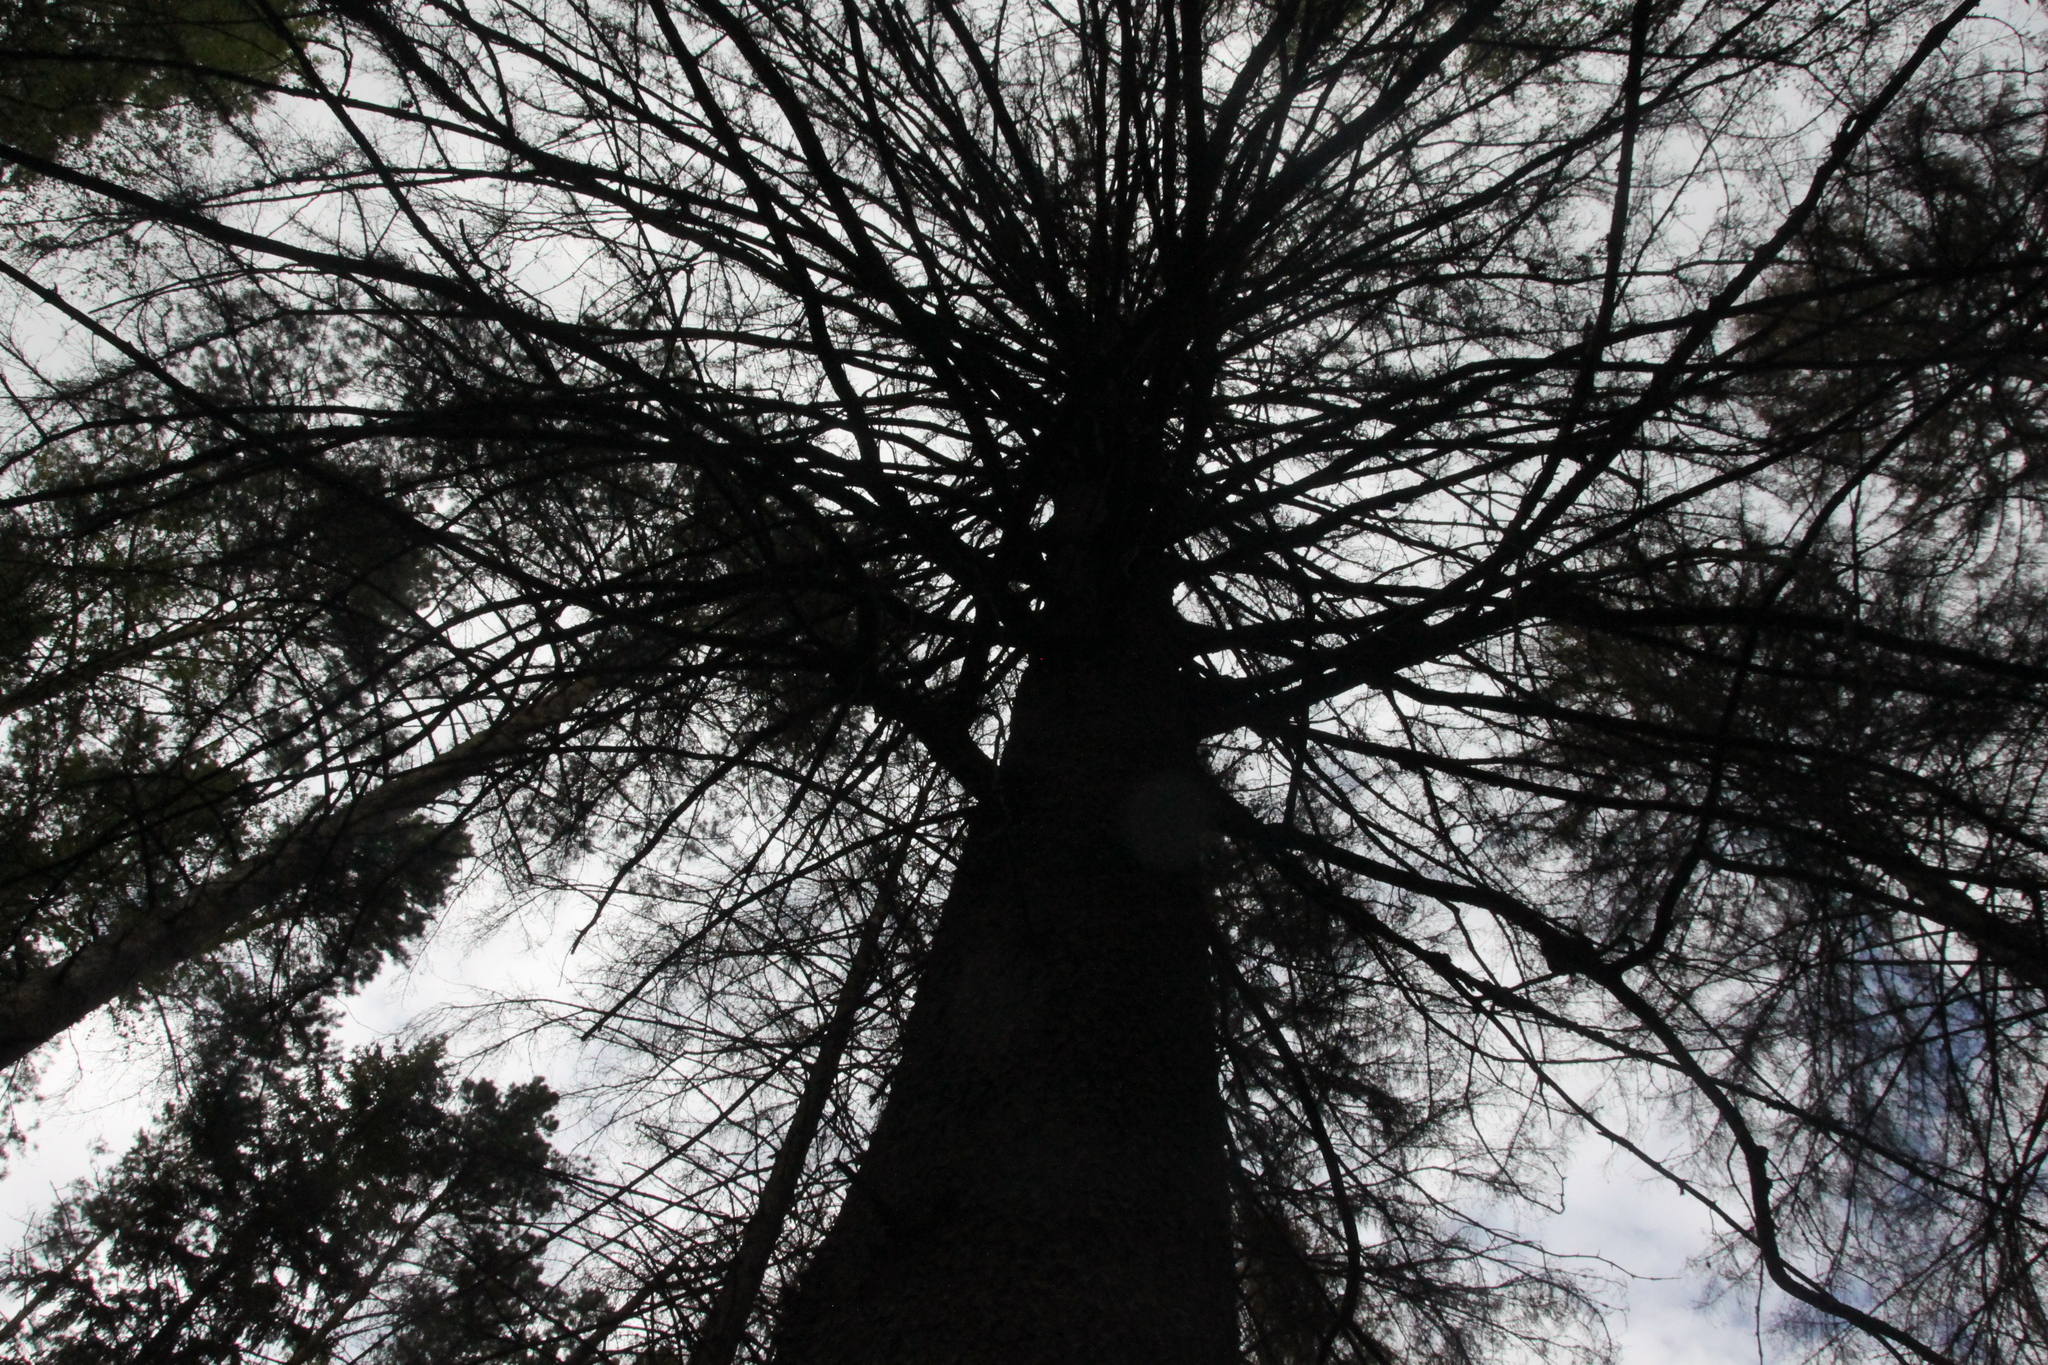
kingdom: Plantae
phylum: Tracheophyta
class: Pinopsida
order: Pinales
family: Pinaceae
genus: Picea
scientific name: Picea abies
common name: Norway spruce
